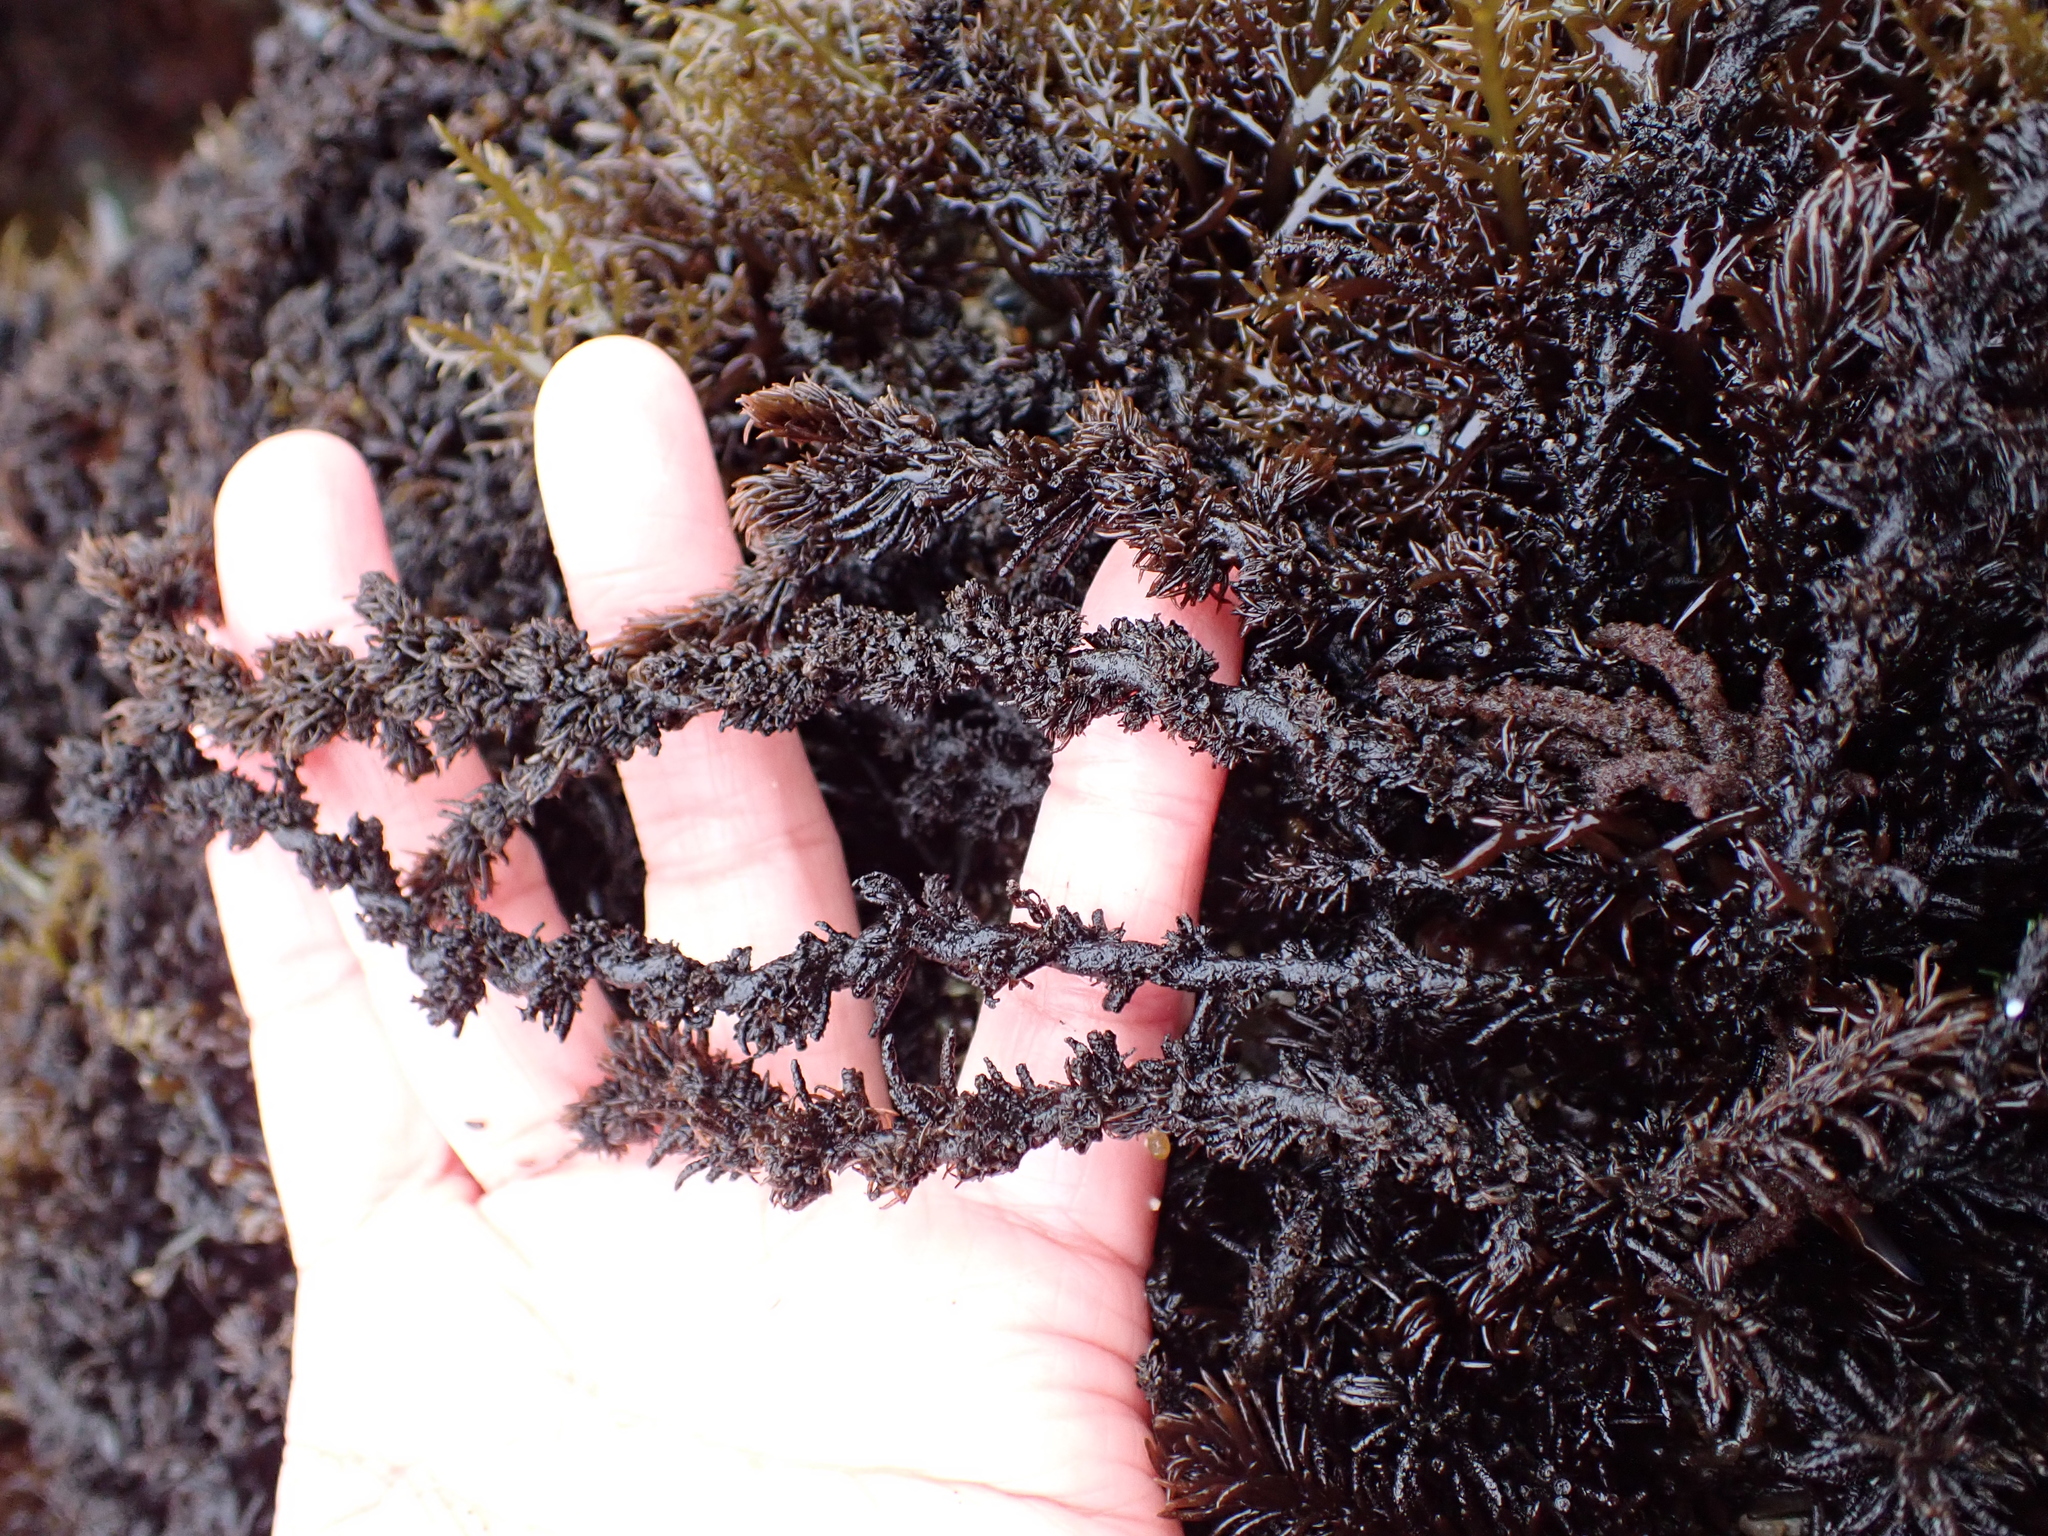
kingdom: Plantae
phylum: Rhodophyta
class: Florideophyceae
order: Ceramiales
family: Rhodomelaceae
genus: Neorhodomela
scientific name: Neorhodomela larix
